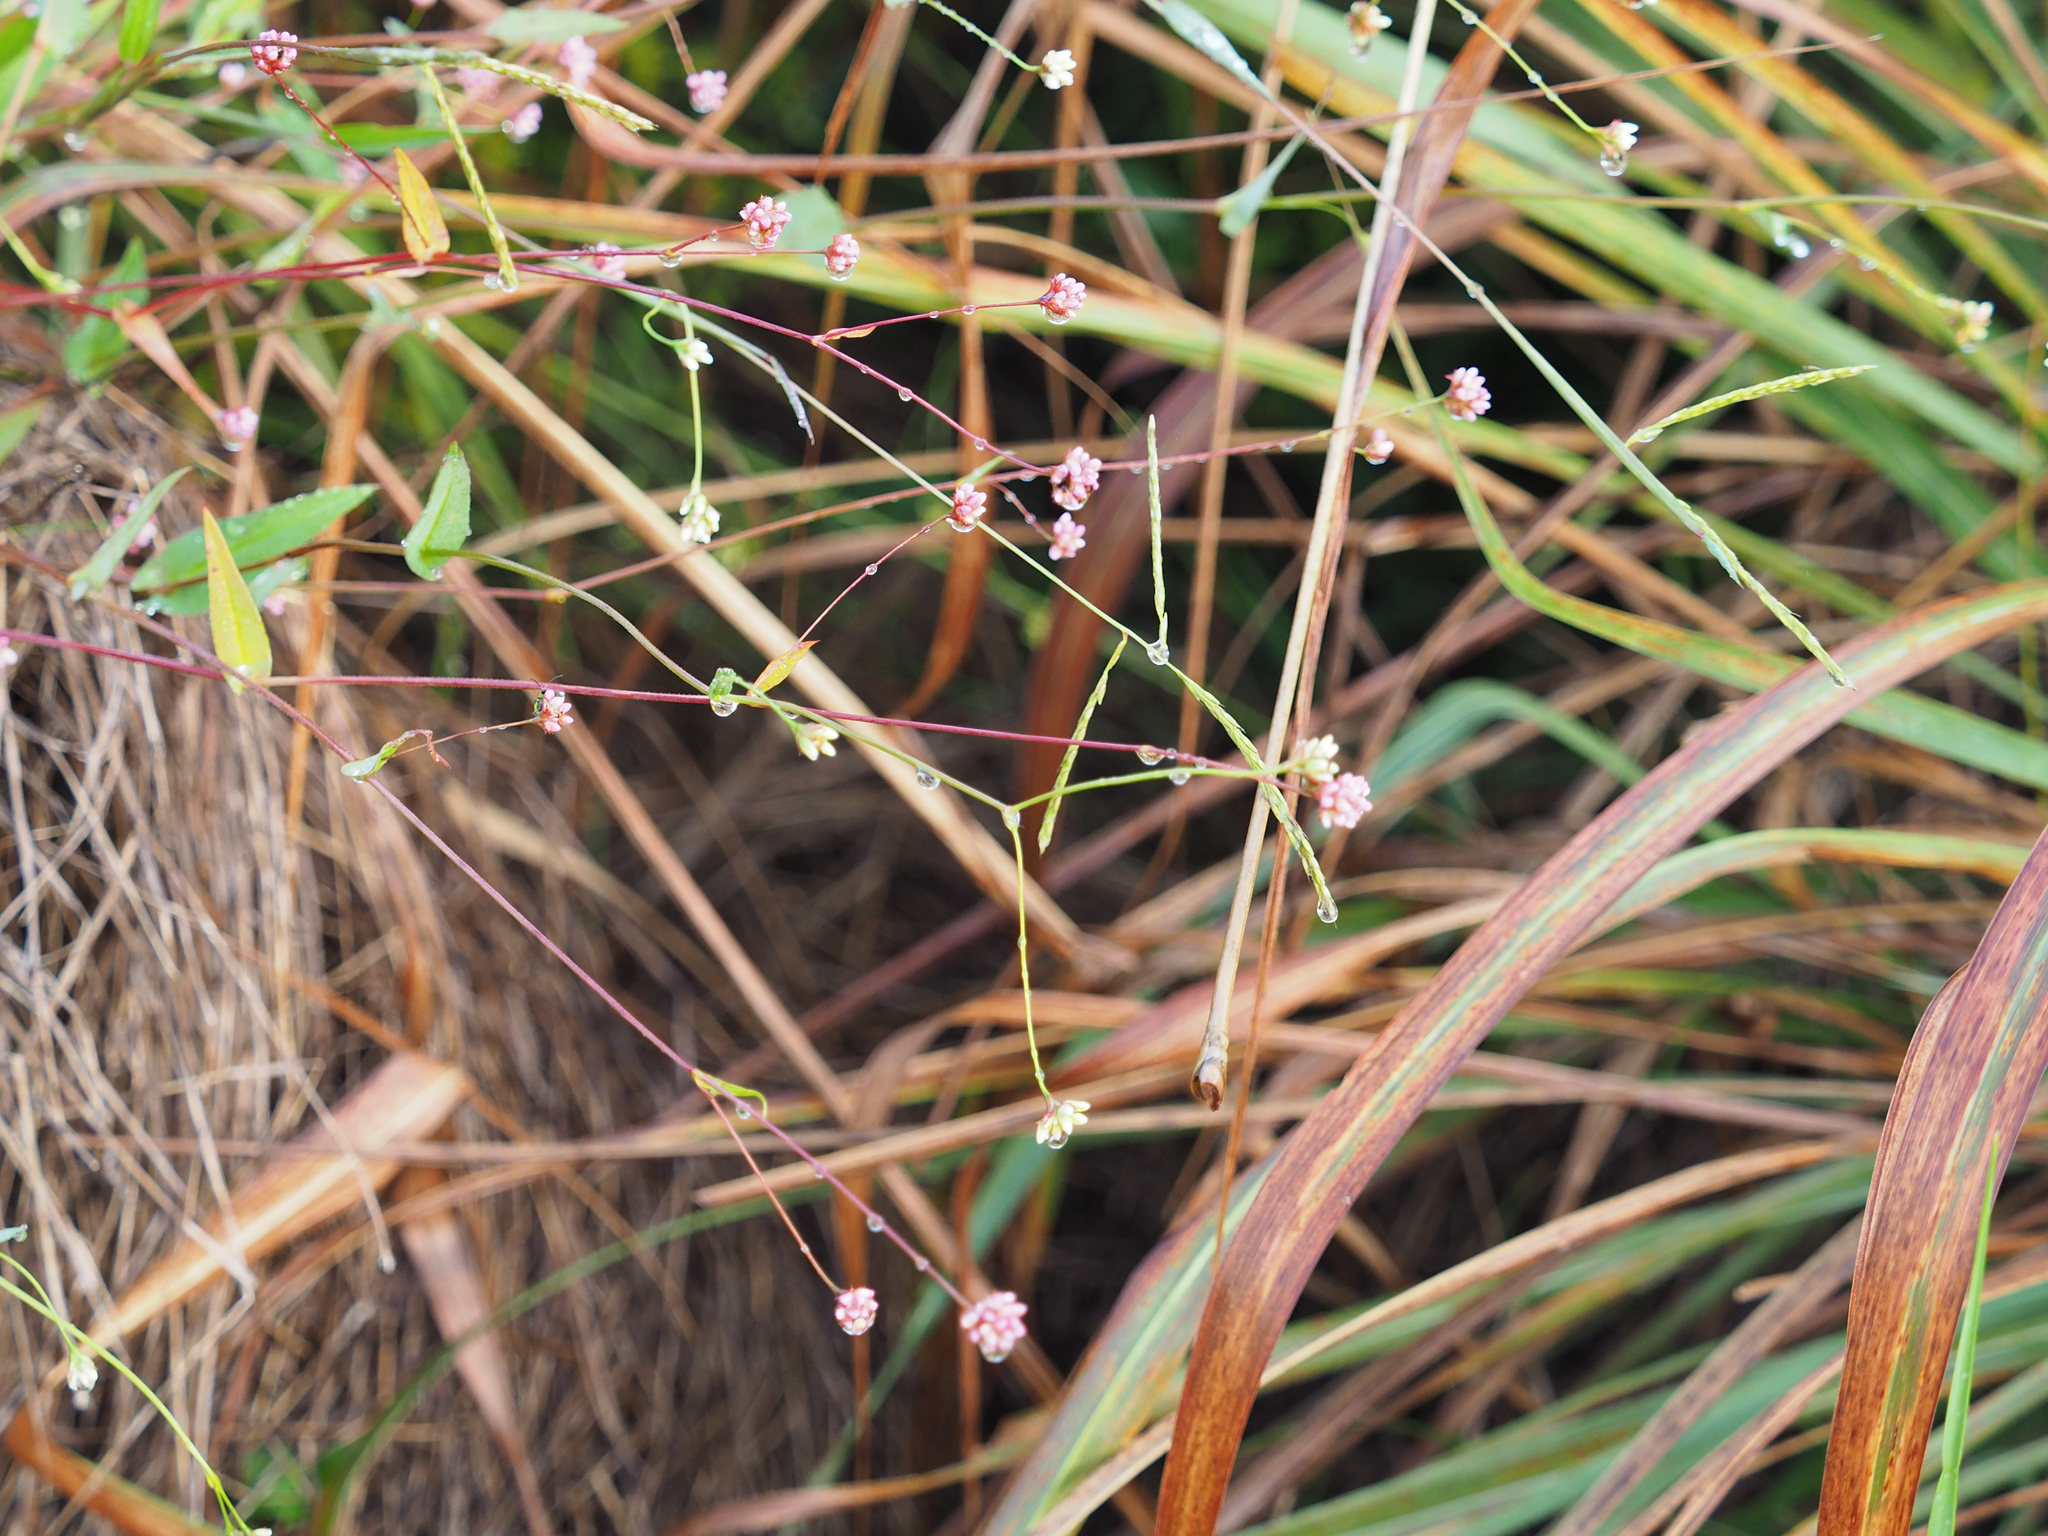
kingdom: Plantae
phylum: Tracheophyta
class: Magnoliopsida
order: Caryophyllales
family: Polygonaceae
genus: Persicaria
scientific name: Persicaria sagittata
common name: American tearthumb
